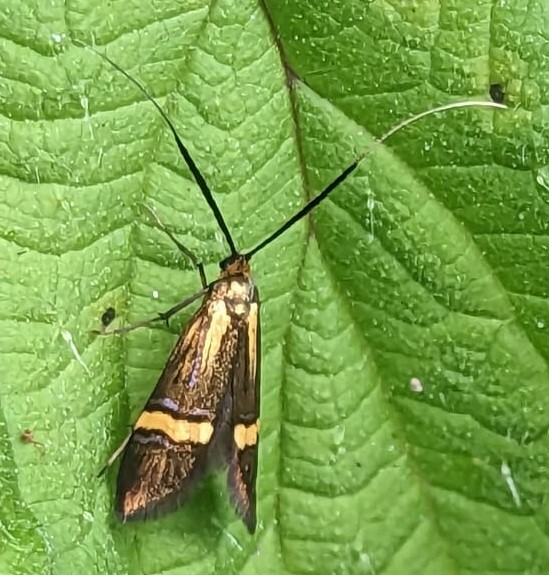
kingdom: Animalia
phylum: Arthropoda
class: Insecta
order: Lepidoptera
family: Adelidae
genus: Nemophora
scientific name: Nemophora degeerella
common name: Yellow-barred long-horn
